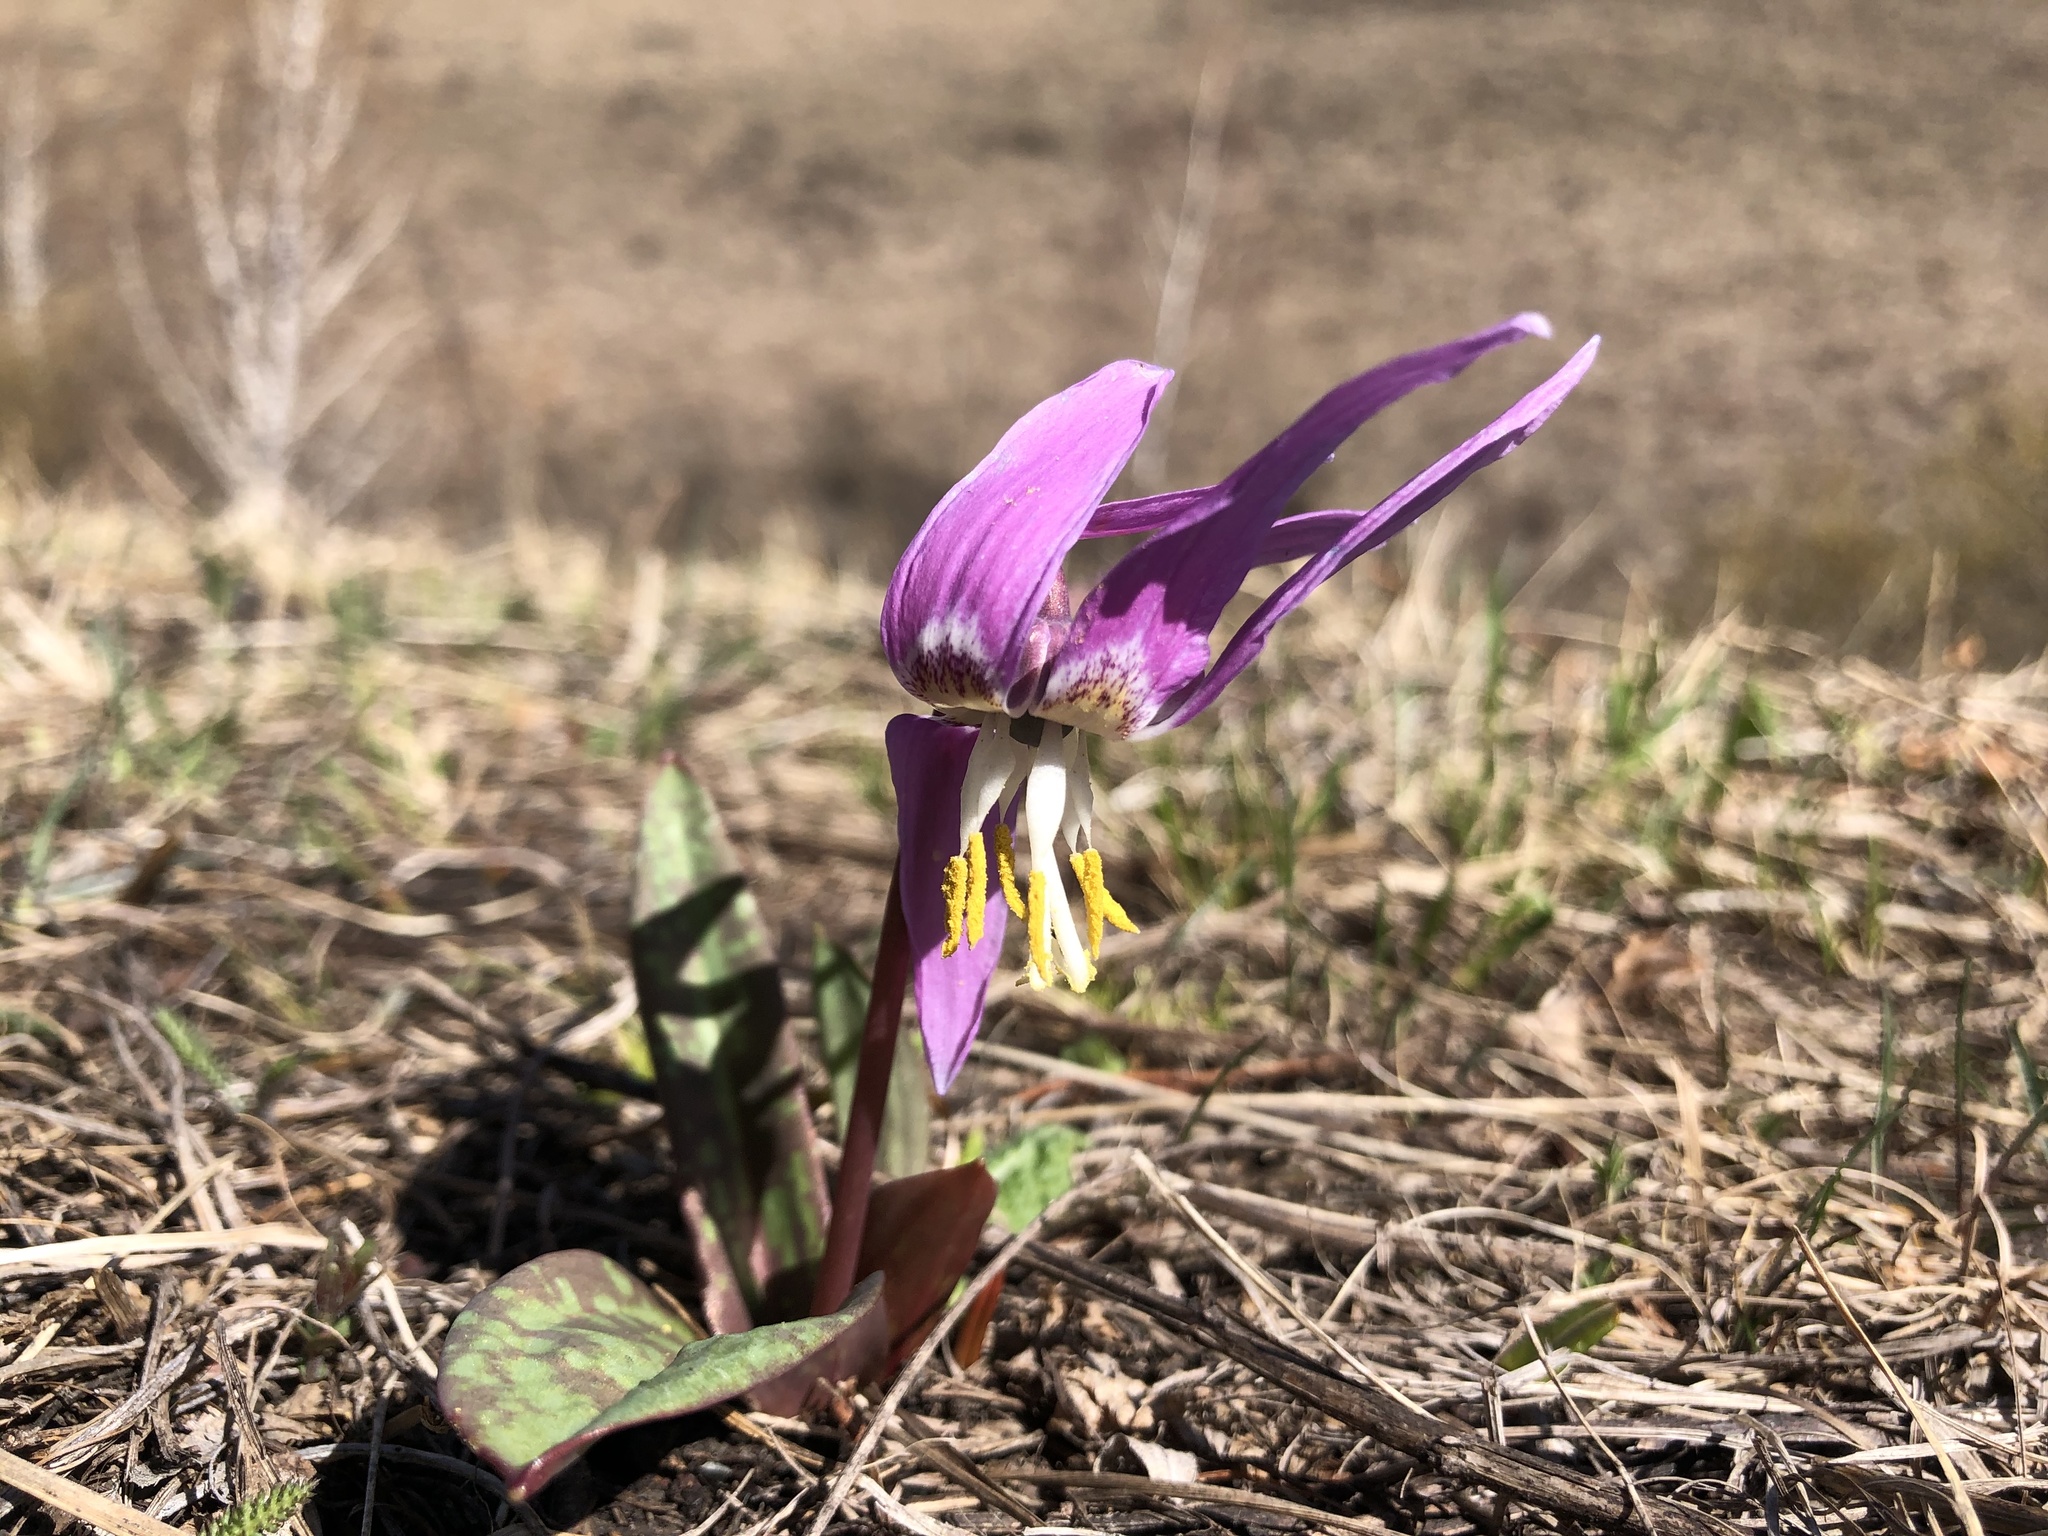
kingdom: Plantae
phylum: Tracheophyta
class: Liliopsida
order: Liliales
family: Liliaceae
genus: Erythronium
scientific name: Erythronium sibiricum
